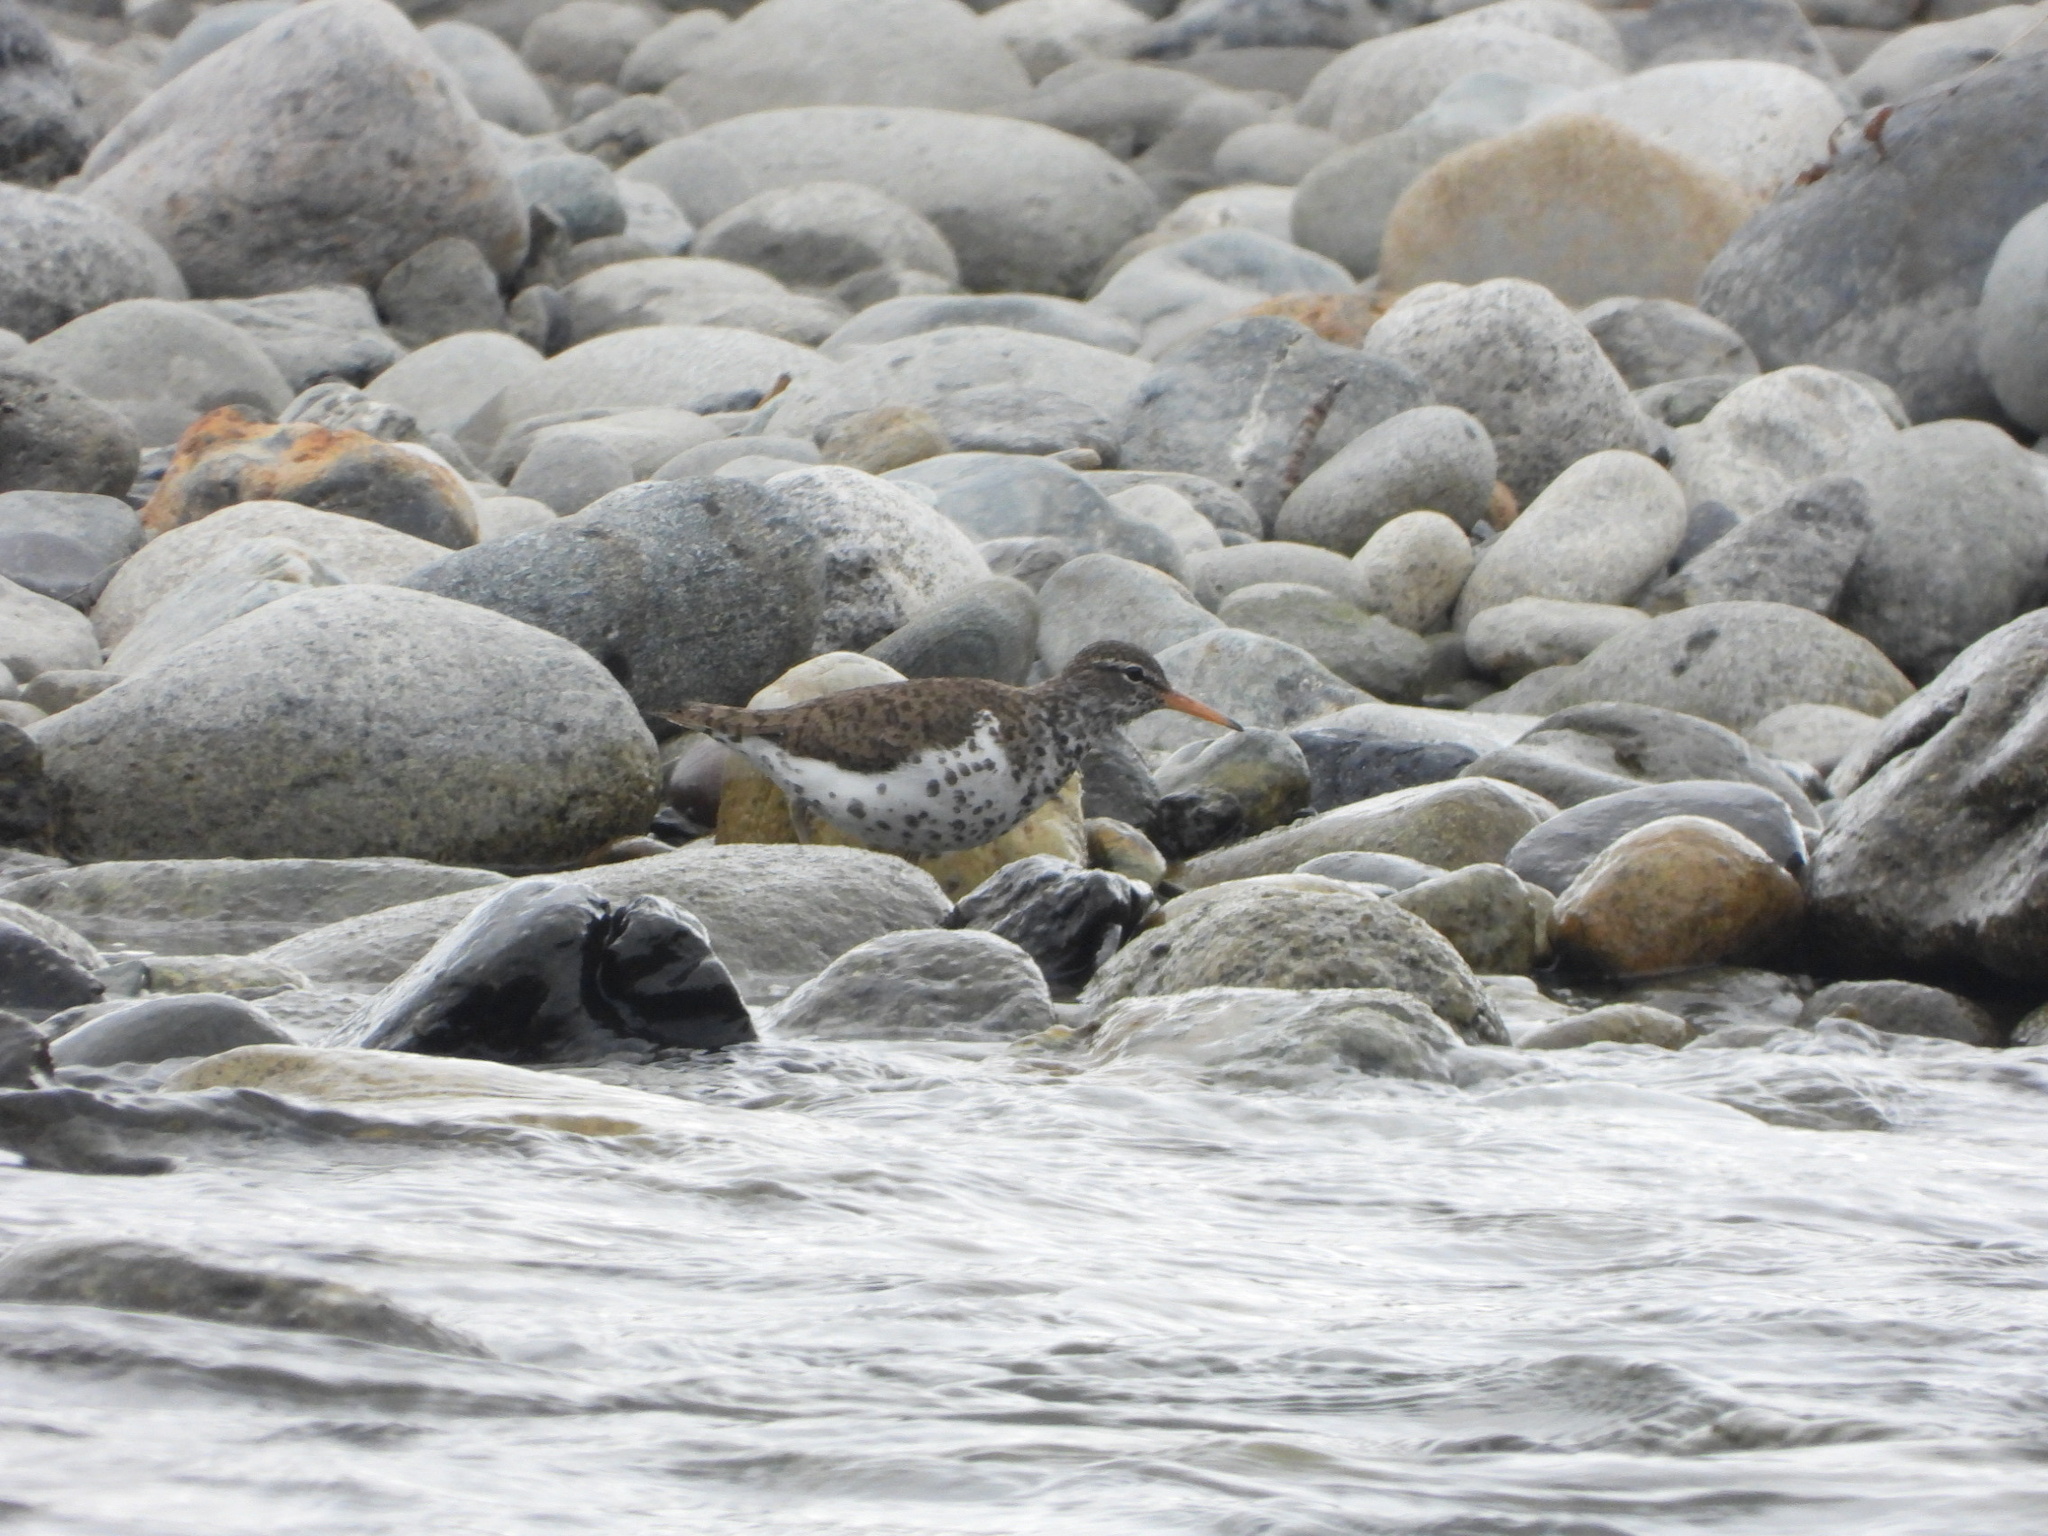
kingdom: Animalia
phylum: Chordata
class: Aves
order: Charadriiformes
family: Scolopacidae
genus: Actitis
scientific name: Actitis macularius
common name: Spotted sandpiper
